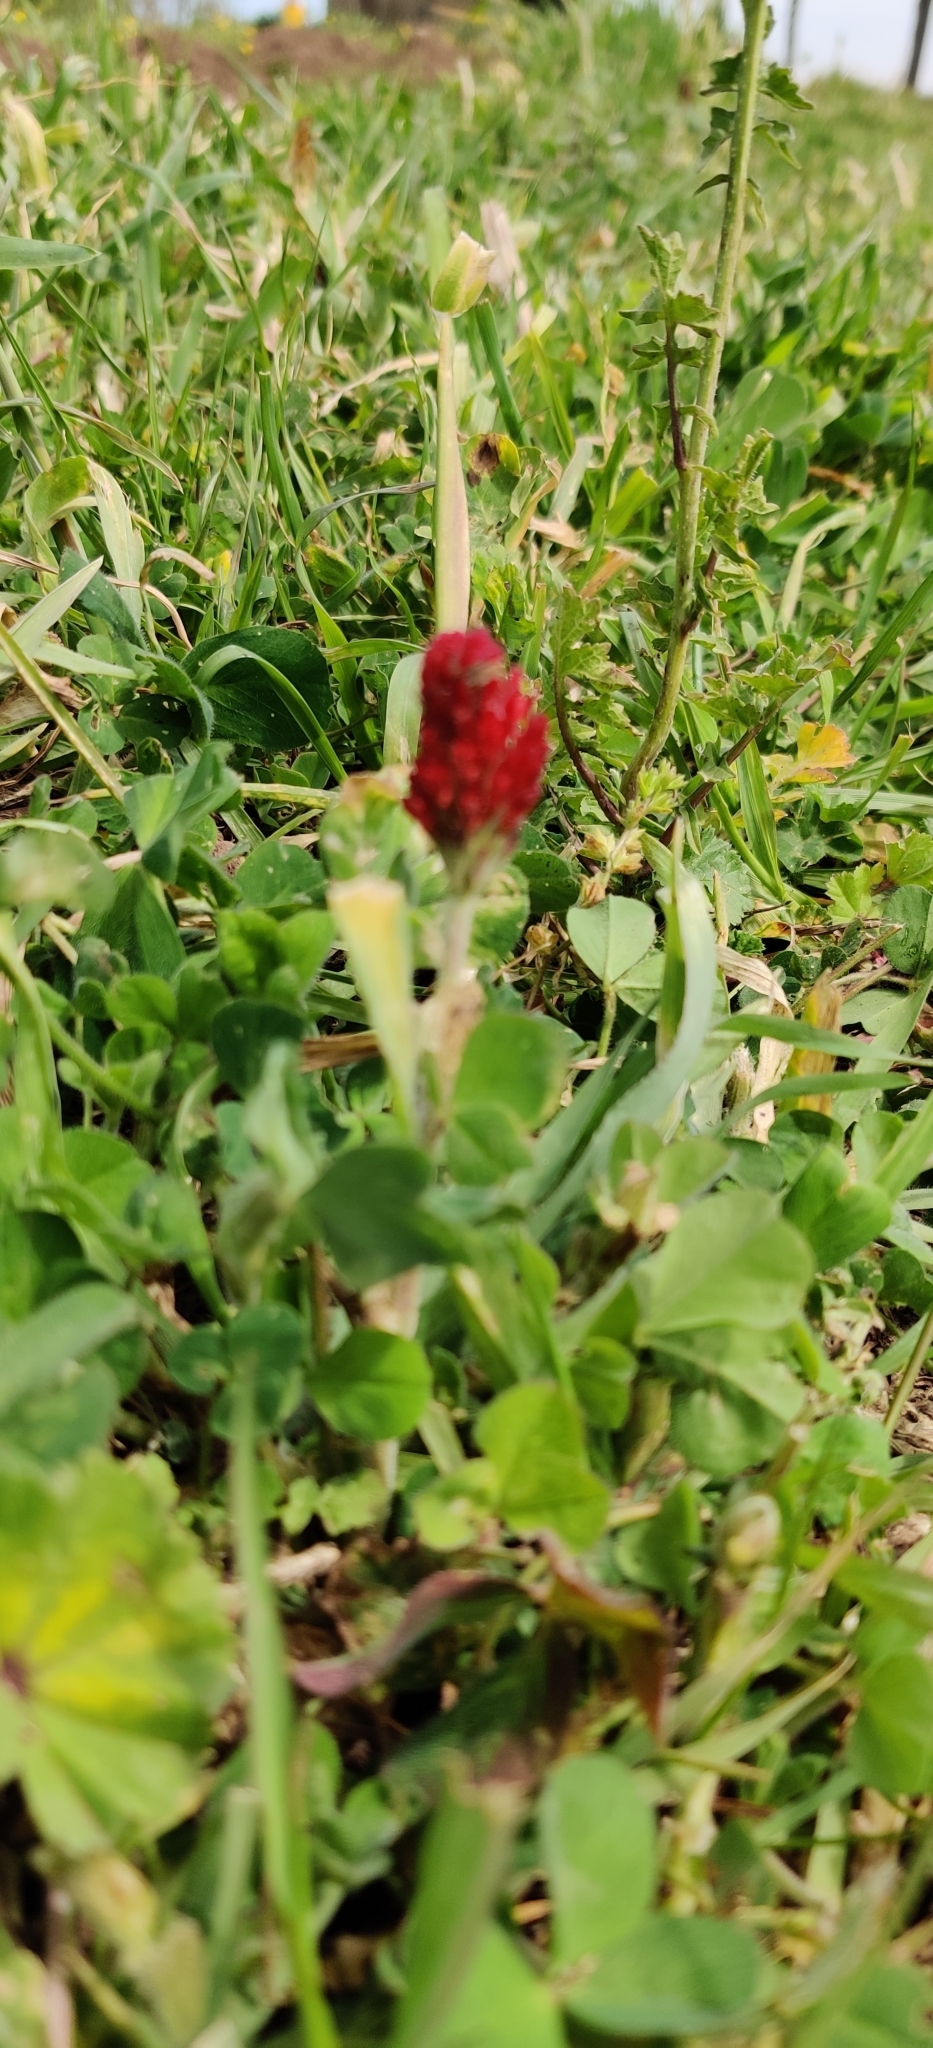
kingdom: Plantae
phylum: Tracheophyta
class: Magnoliopsida
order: Fabales
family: Fabaceae
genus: Trifolium
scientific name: Trifolium incarnatum
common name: Crimson clover
